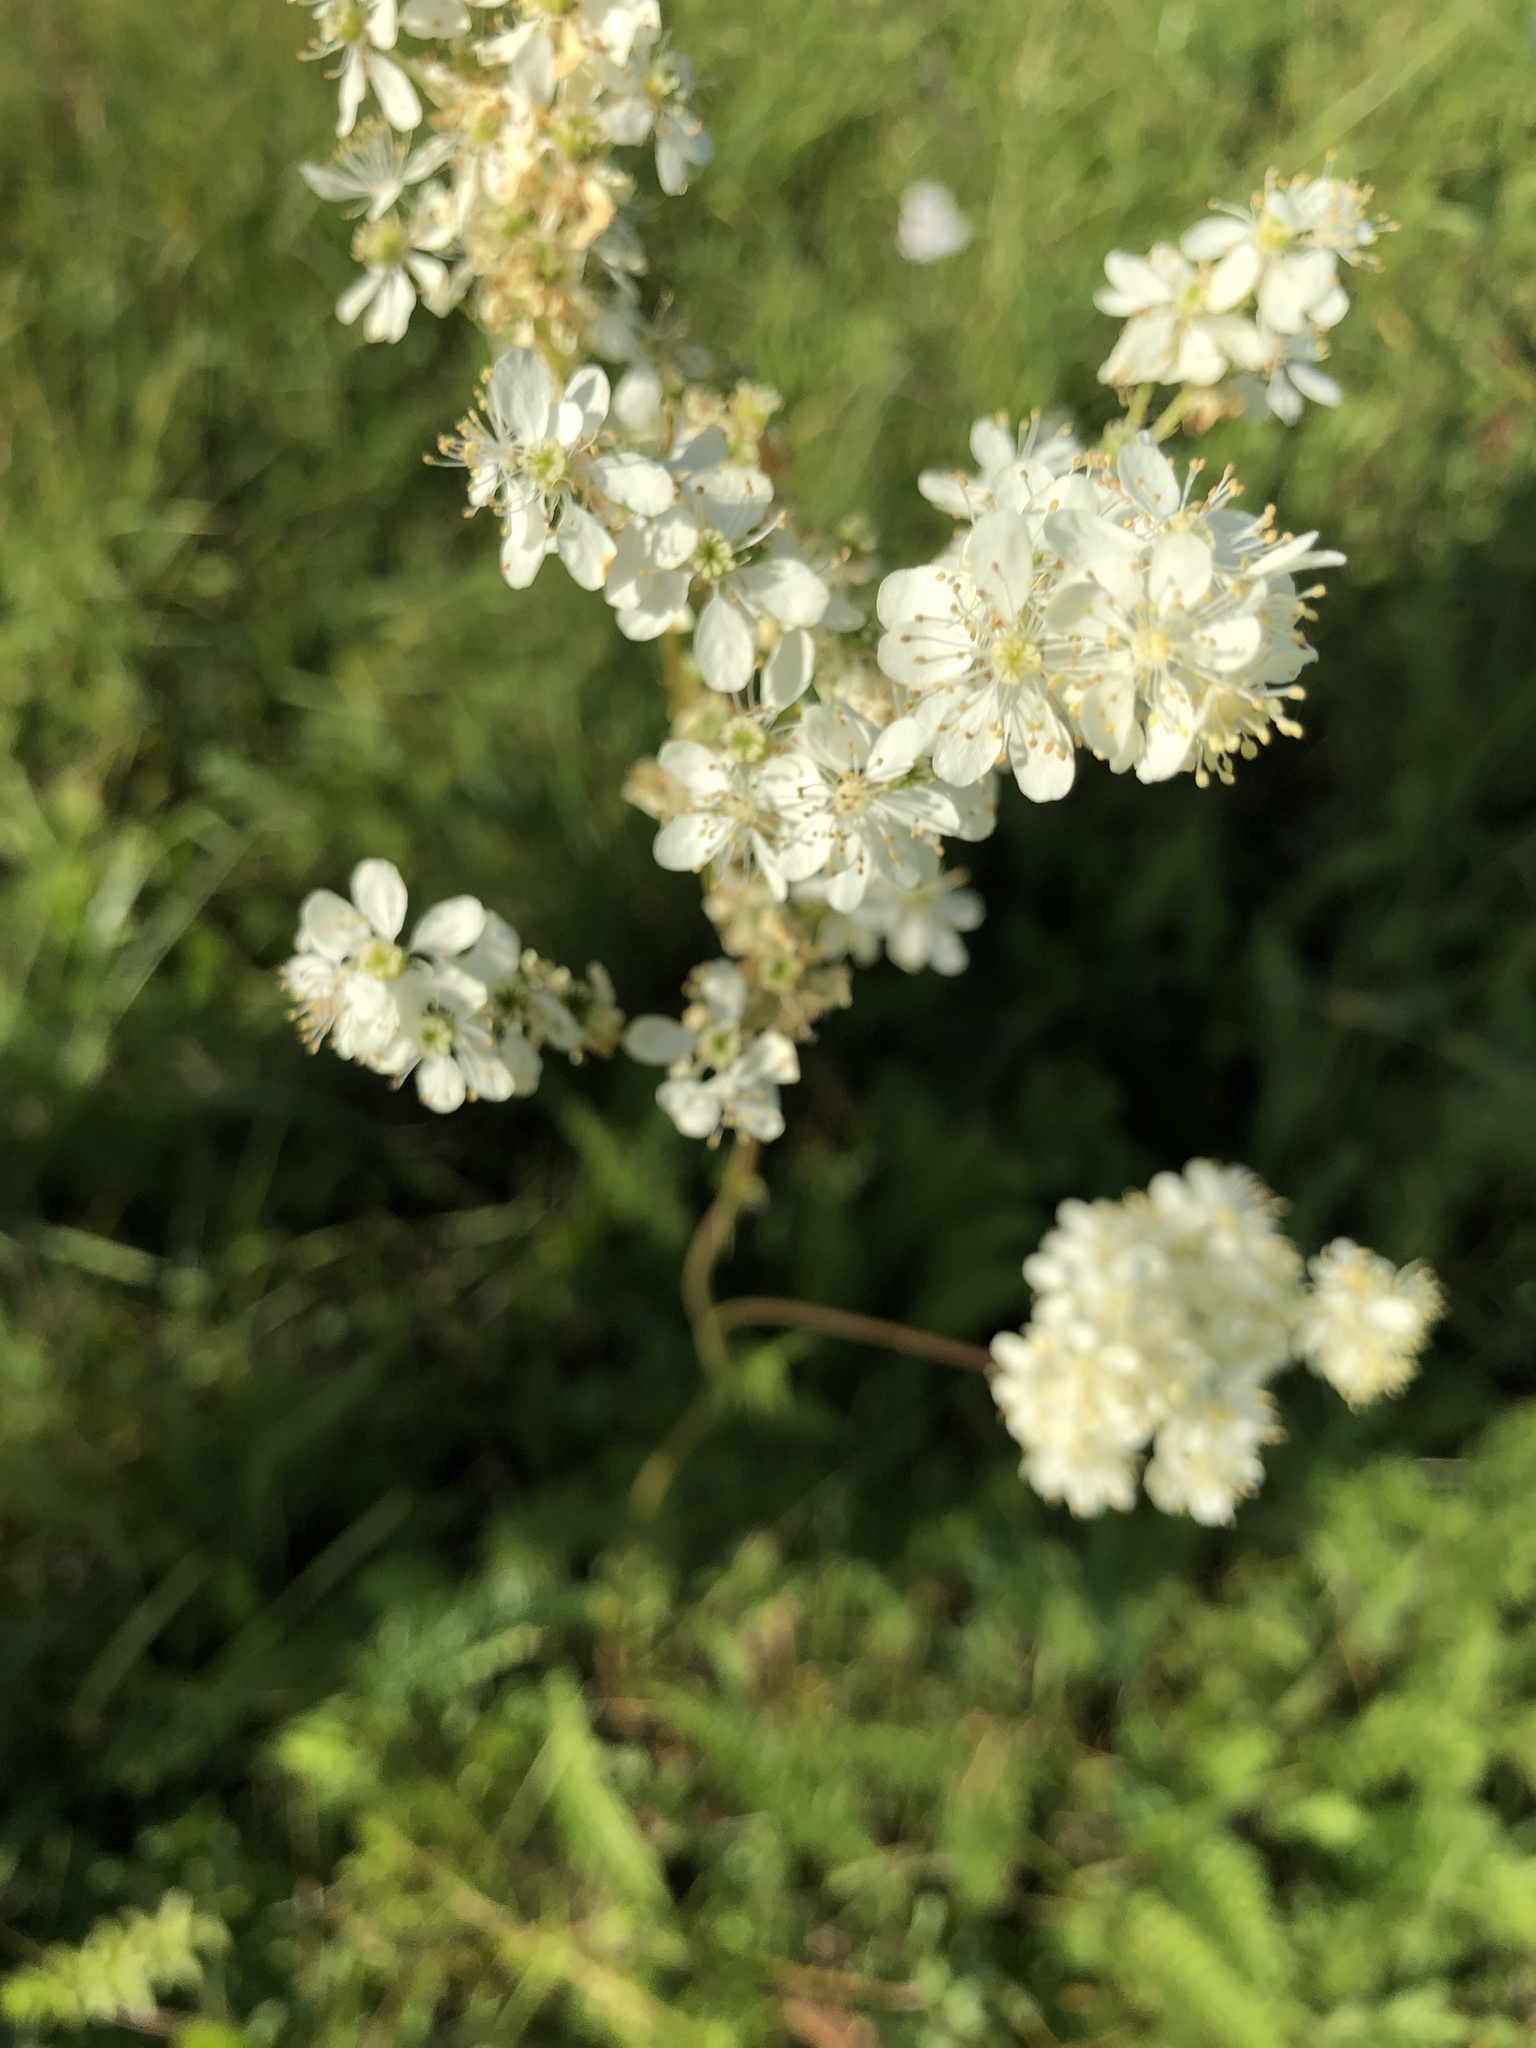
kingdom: Plantae
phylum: Tracheophyta
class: Magnoliopsida
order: Rosales
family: Rosaceae
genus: Filipendula
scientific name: Filipendula vulgaris
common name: Dropwort
